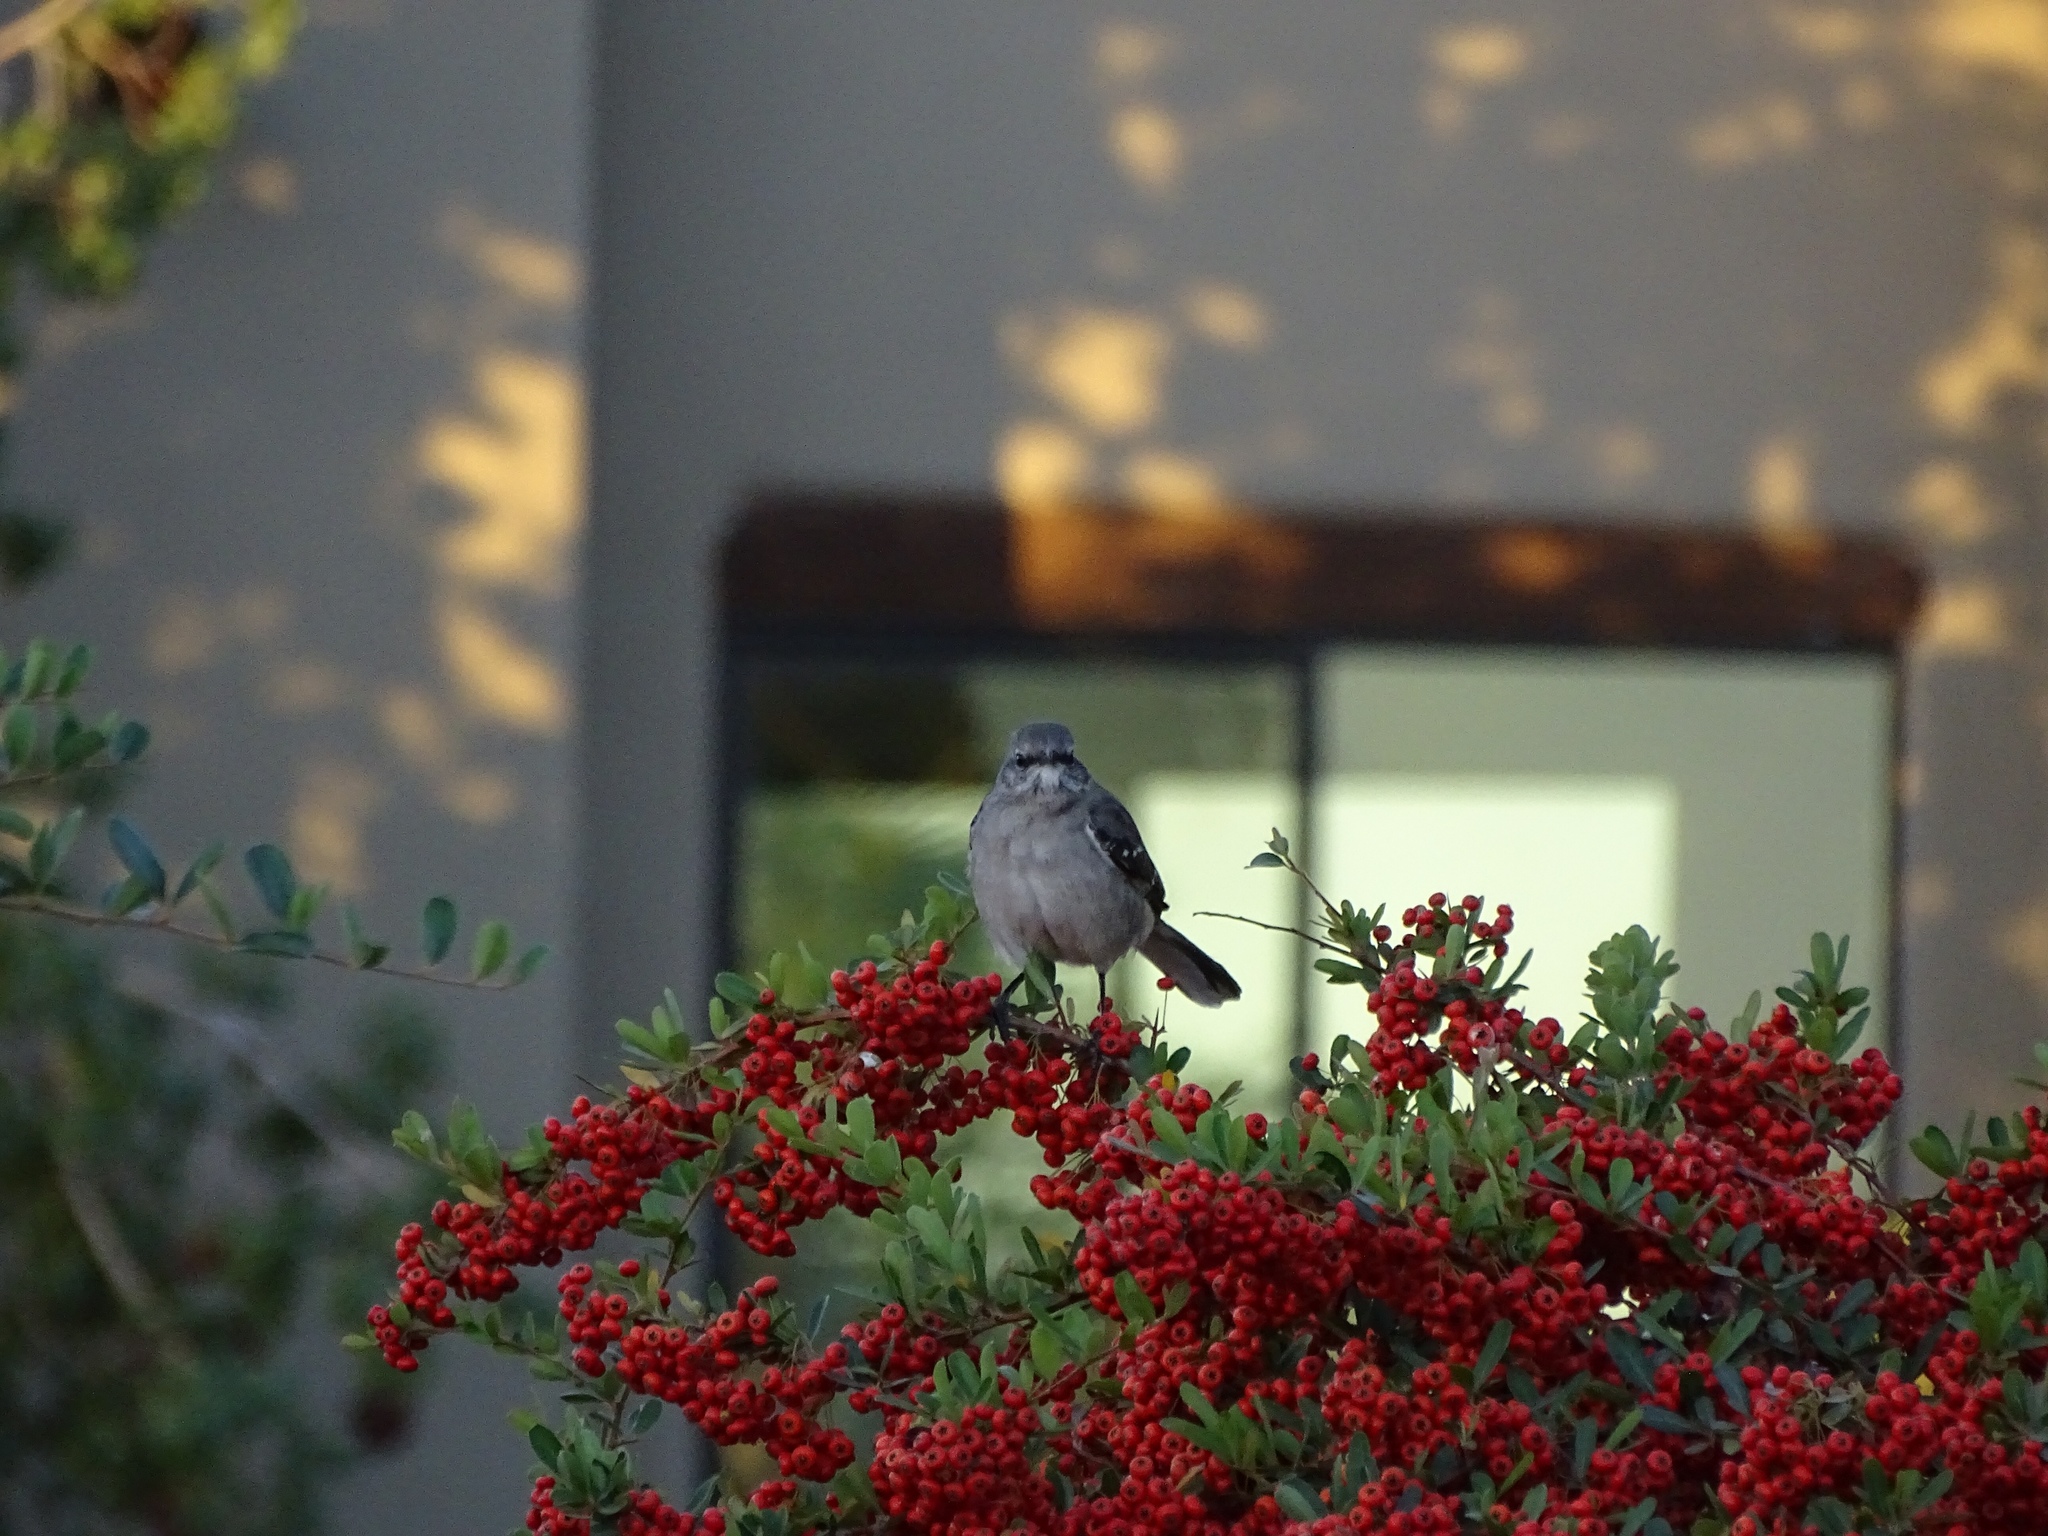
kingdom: Animalia
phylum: Chordata
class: Aves
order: Passeriformes
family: Mimidae
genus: Mimus
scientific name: Mimus polyglottos
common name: Northern mockingbird
